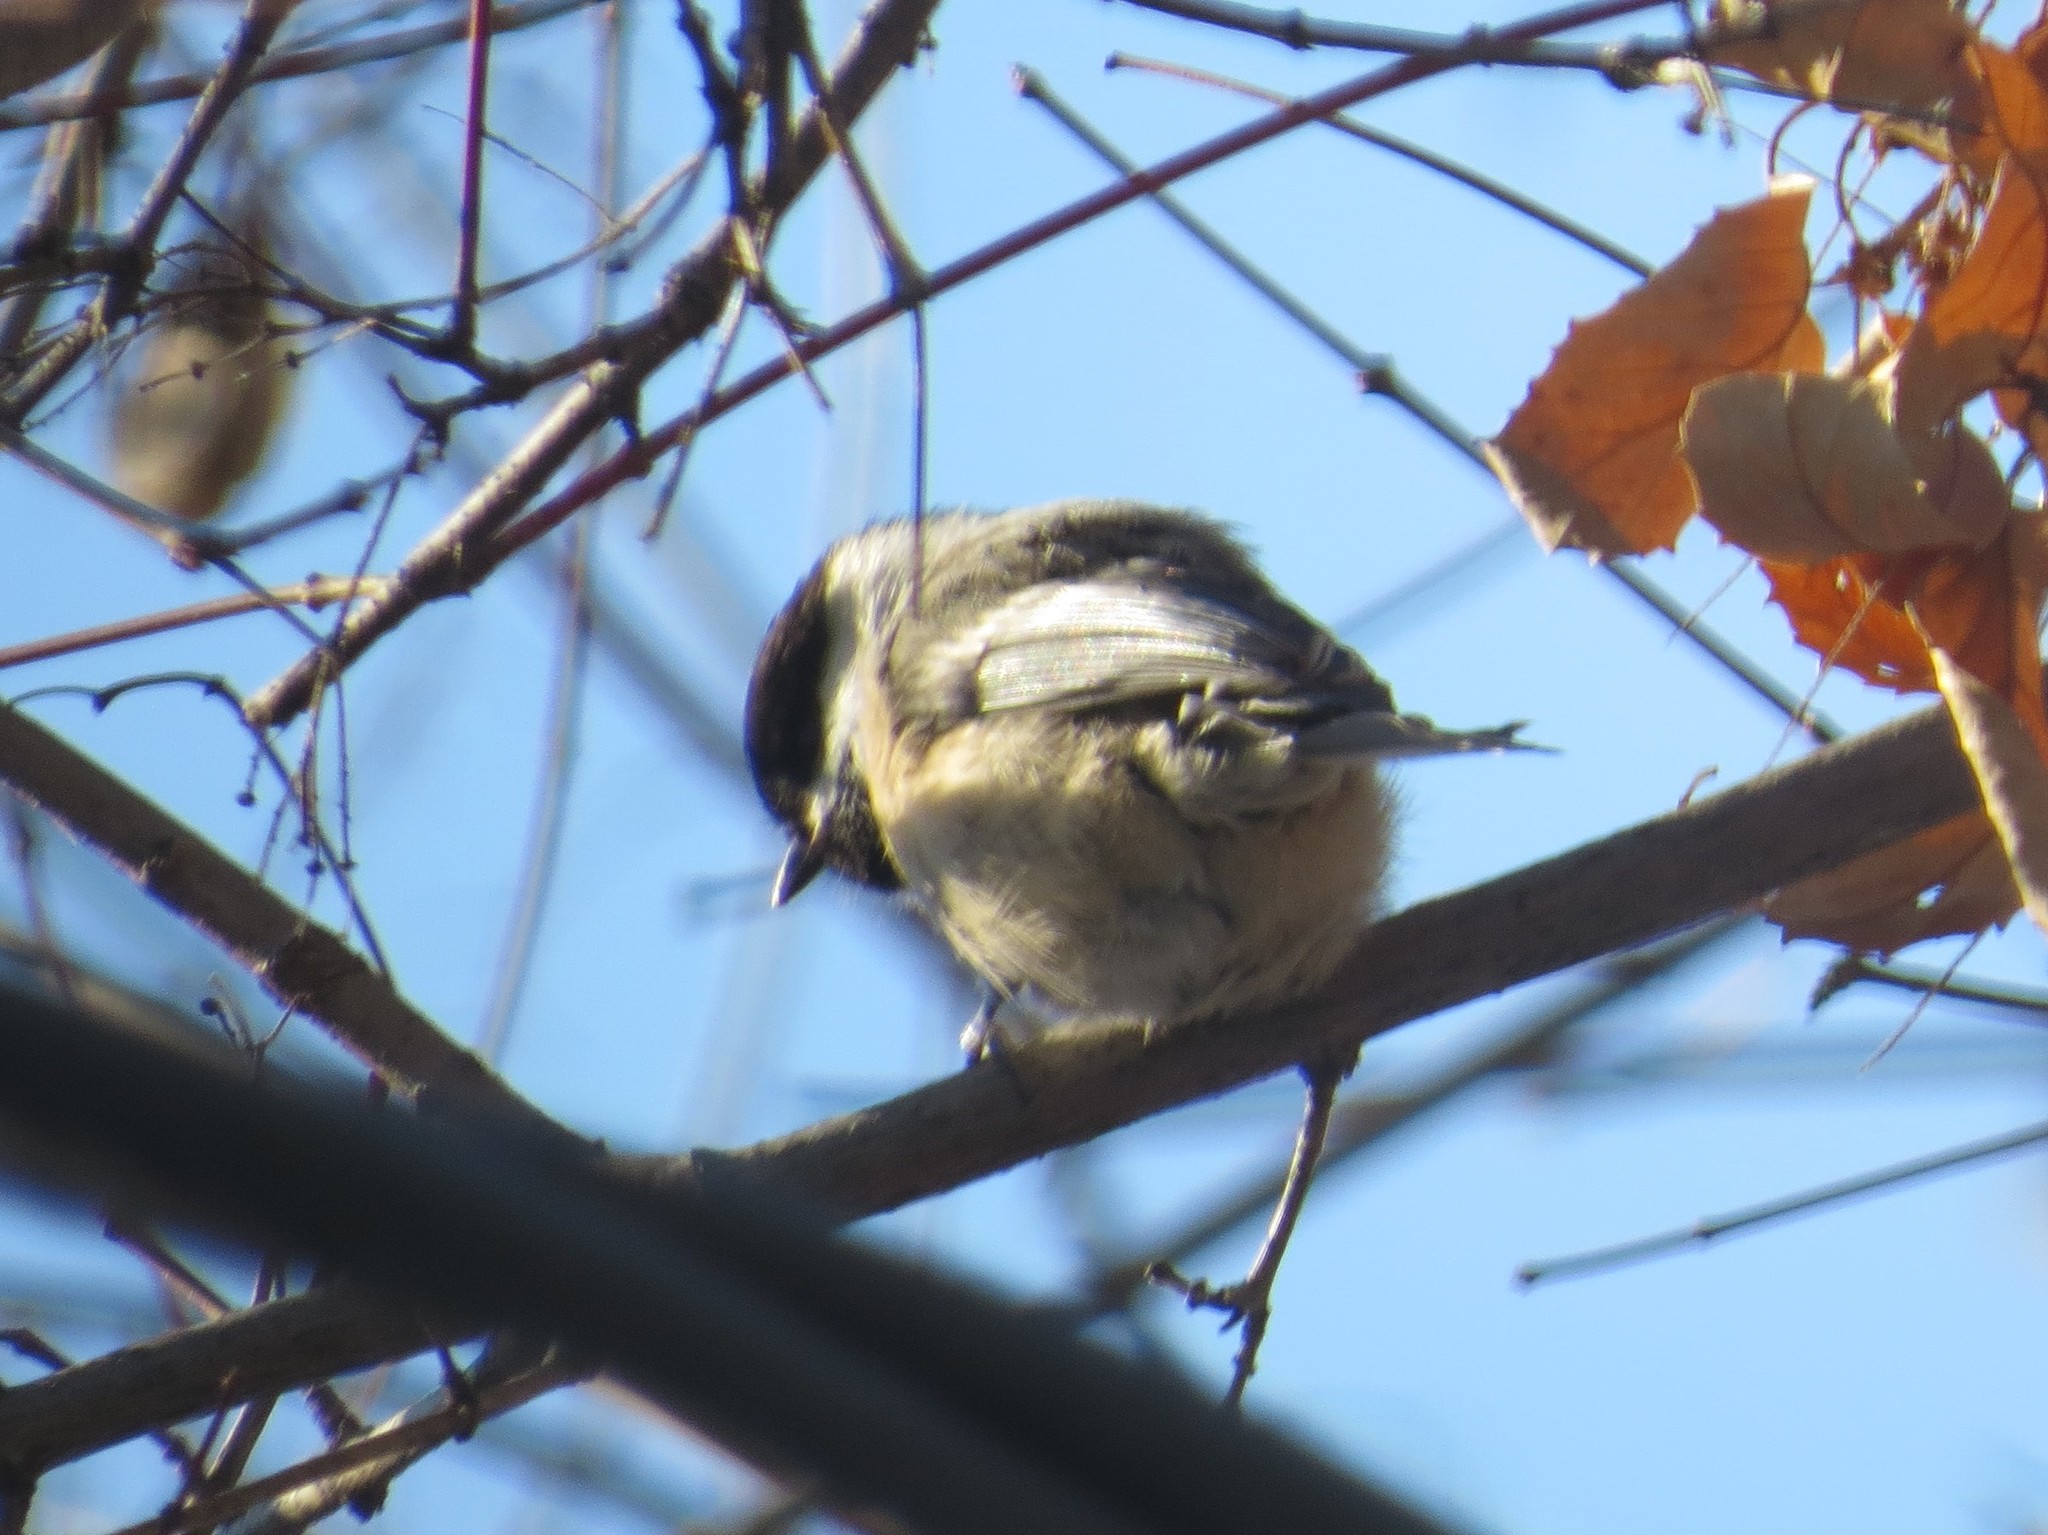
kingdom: Animalia
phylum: Chordata
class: Aves
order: Passeriformes
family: Paridae
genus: Poecile
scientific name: Poecile atricapillus
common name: Black-capped chickadee
